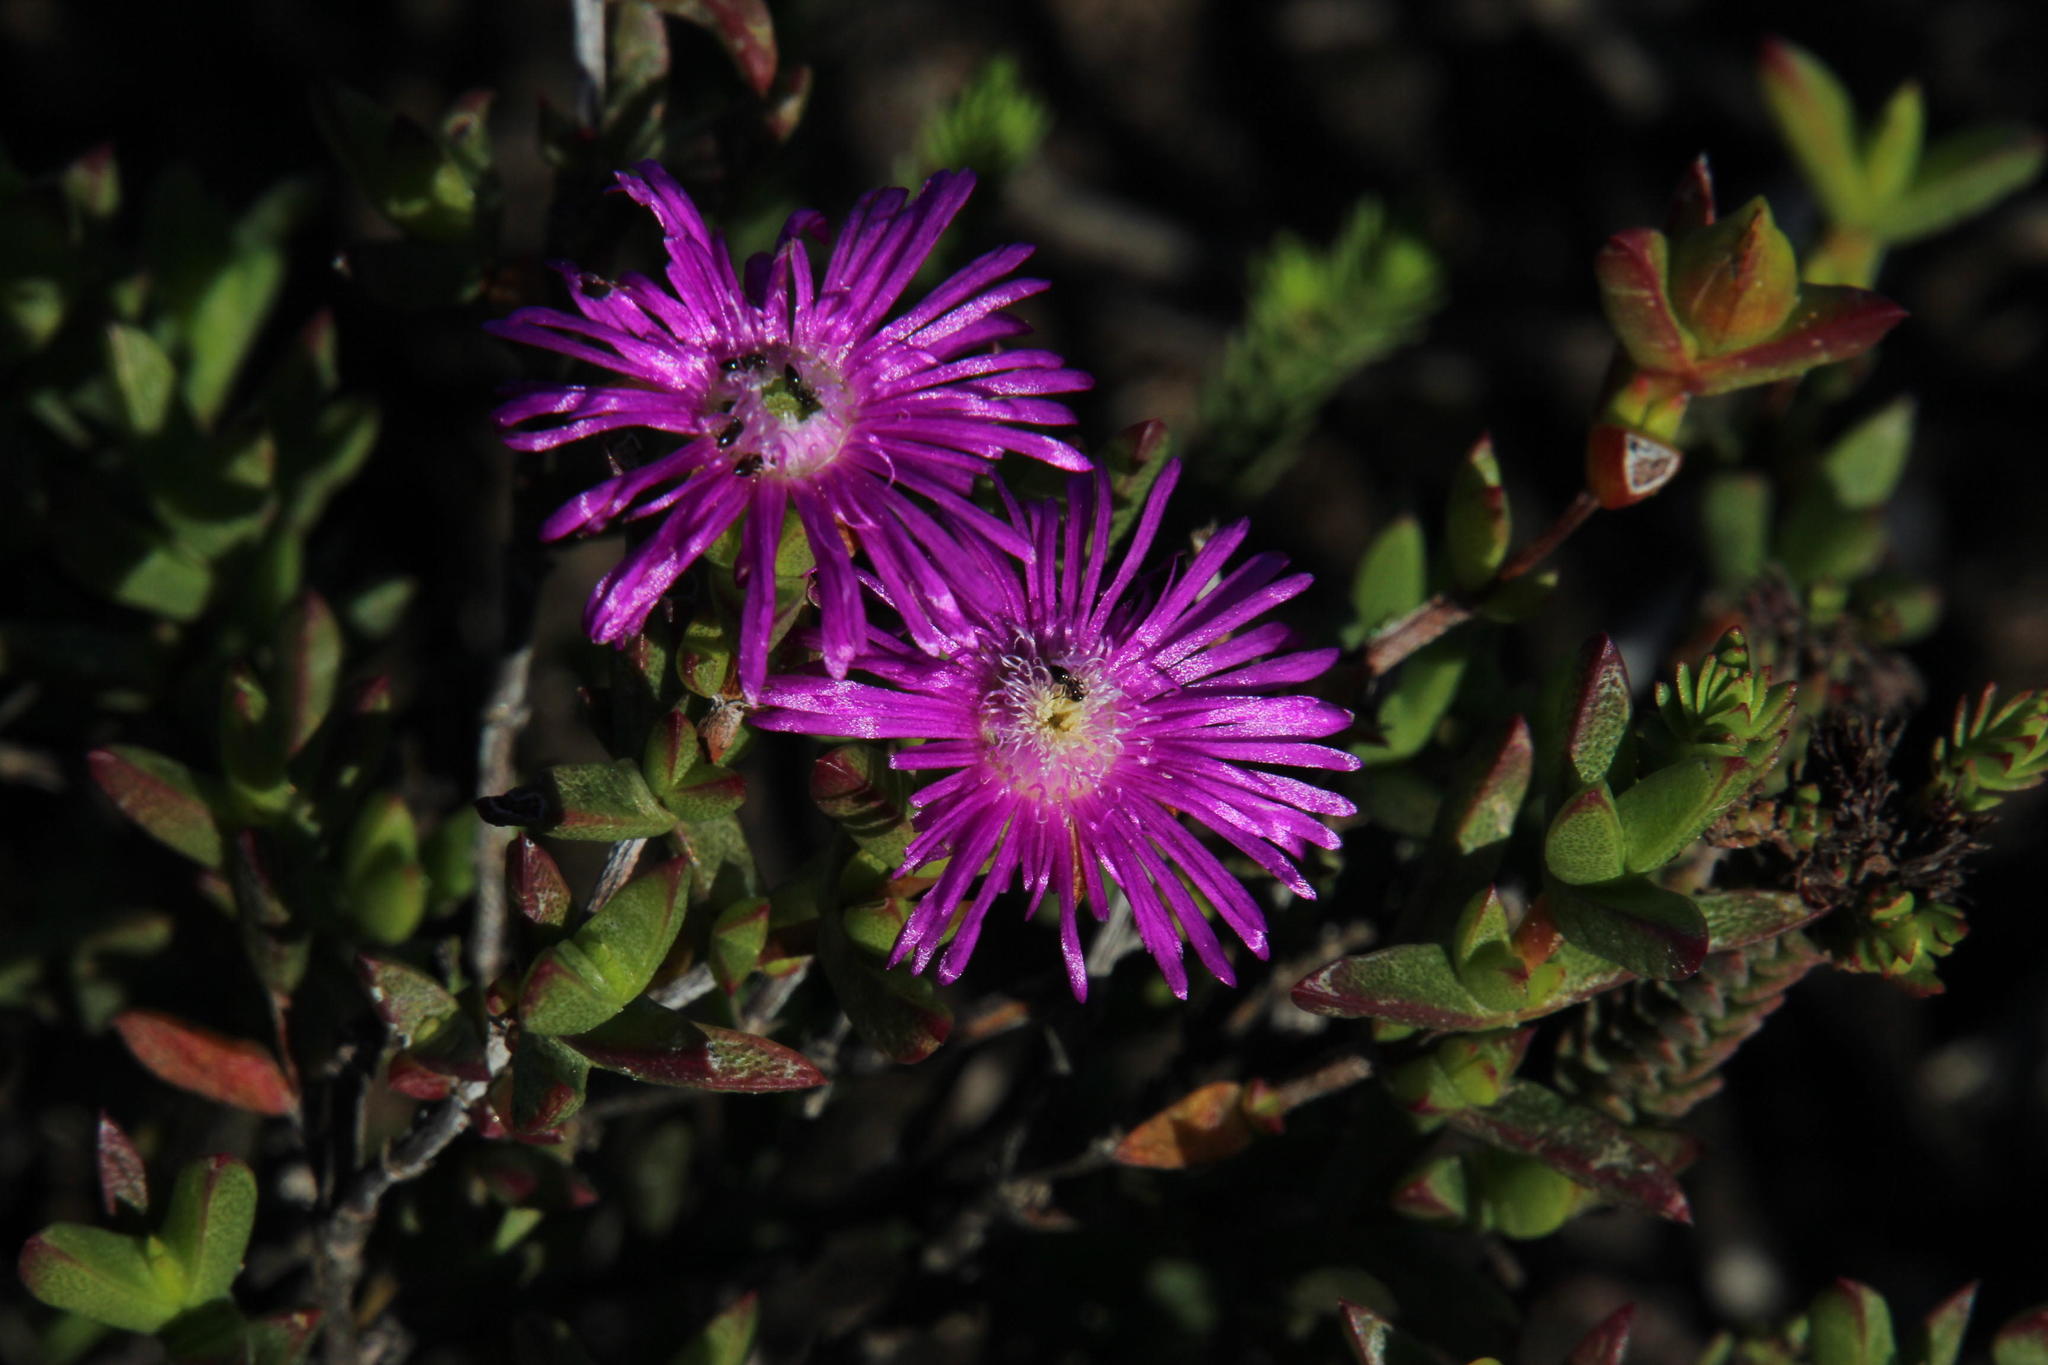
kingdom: Plantae
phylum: Tracheophyta
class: Magnoliopsida
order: Caryophyllales
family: Aizoaceae
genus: Ruschia
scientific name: Ruschia orientalis
